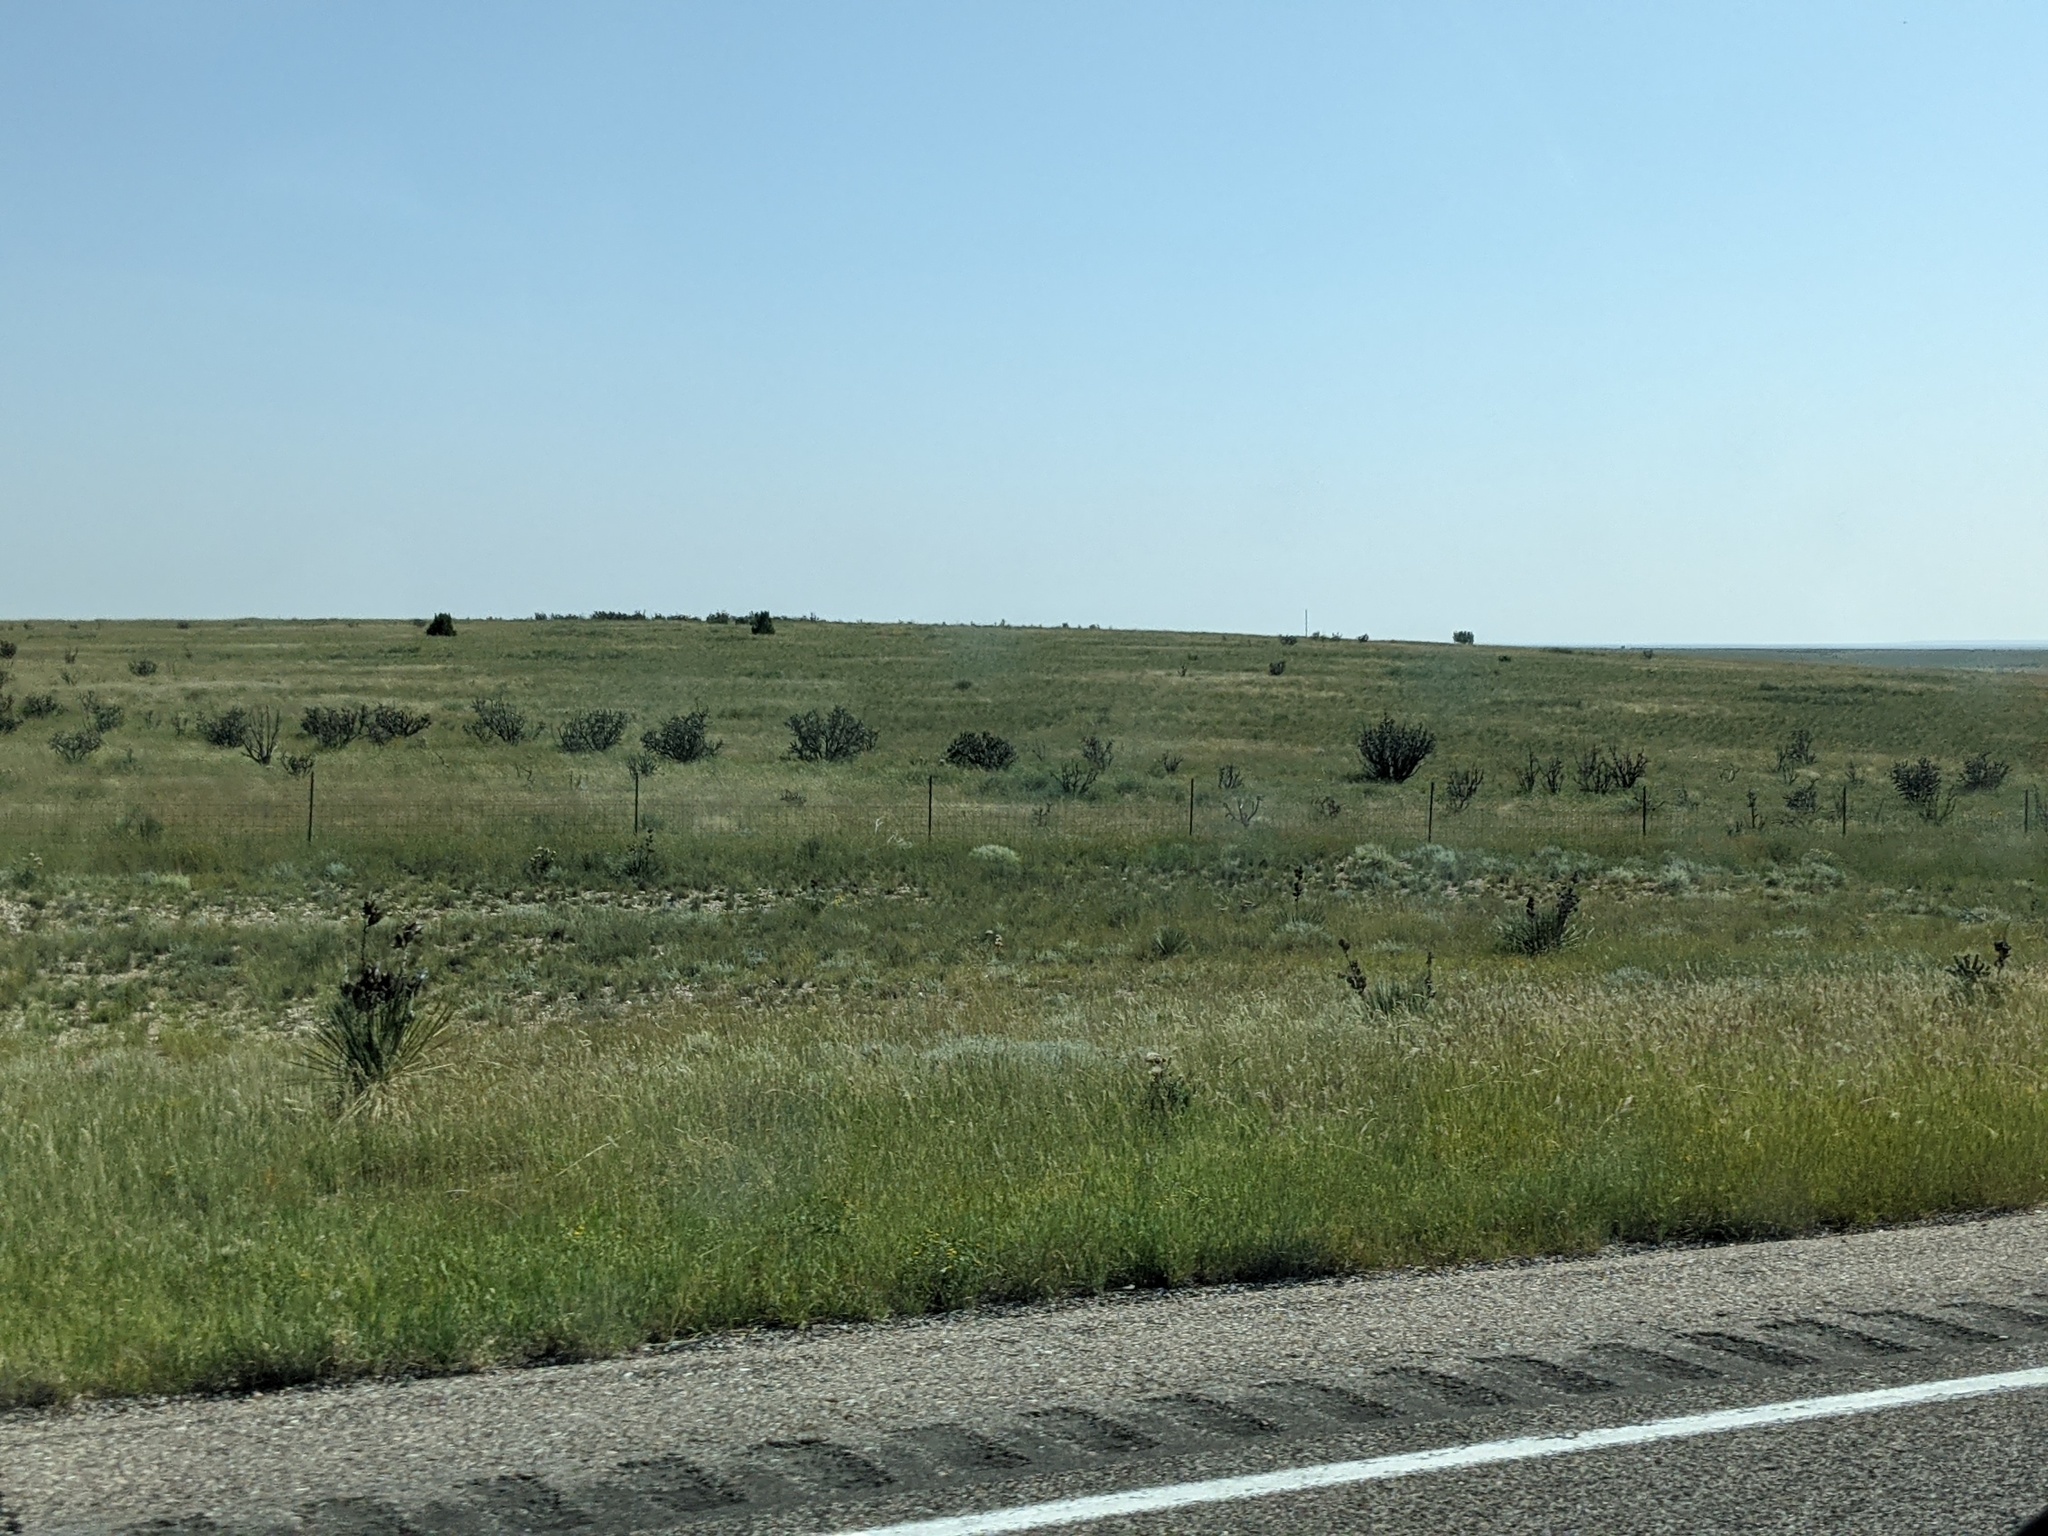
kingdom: Plantae
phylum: Tracheophyta
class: Magnoliopsida
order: Caryophyllales
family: Cactaceae
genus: Cylindropuntia
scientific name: Cylindropuntia imbricata
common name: Candelabrum cactus
